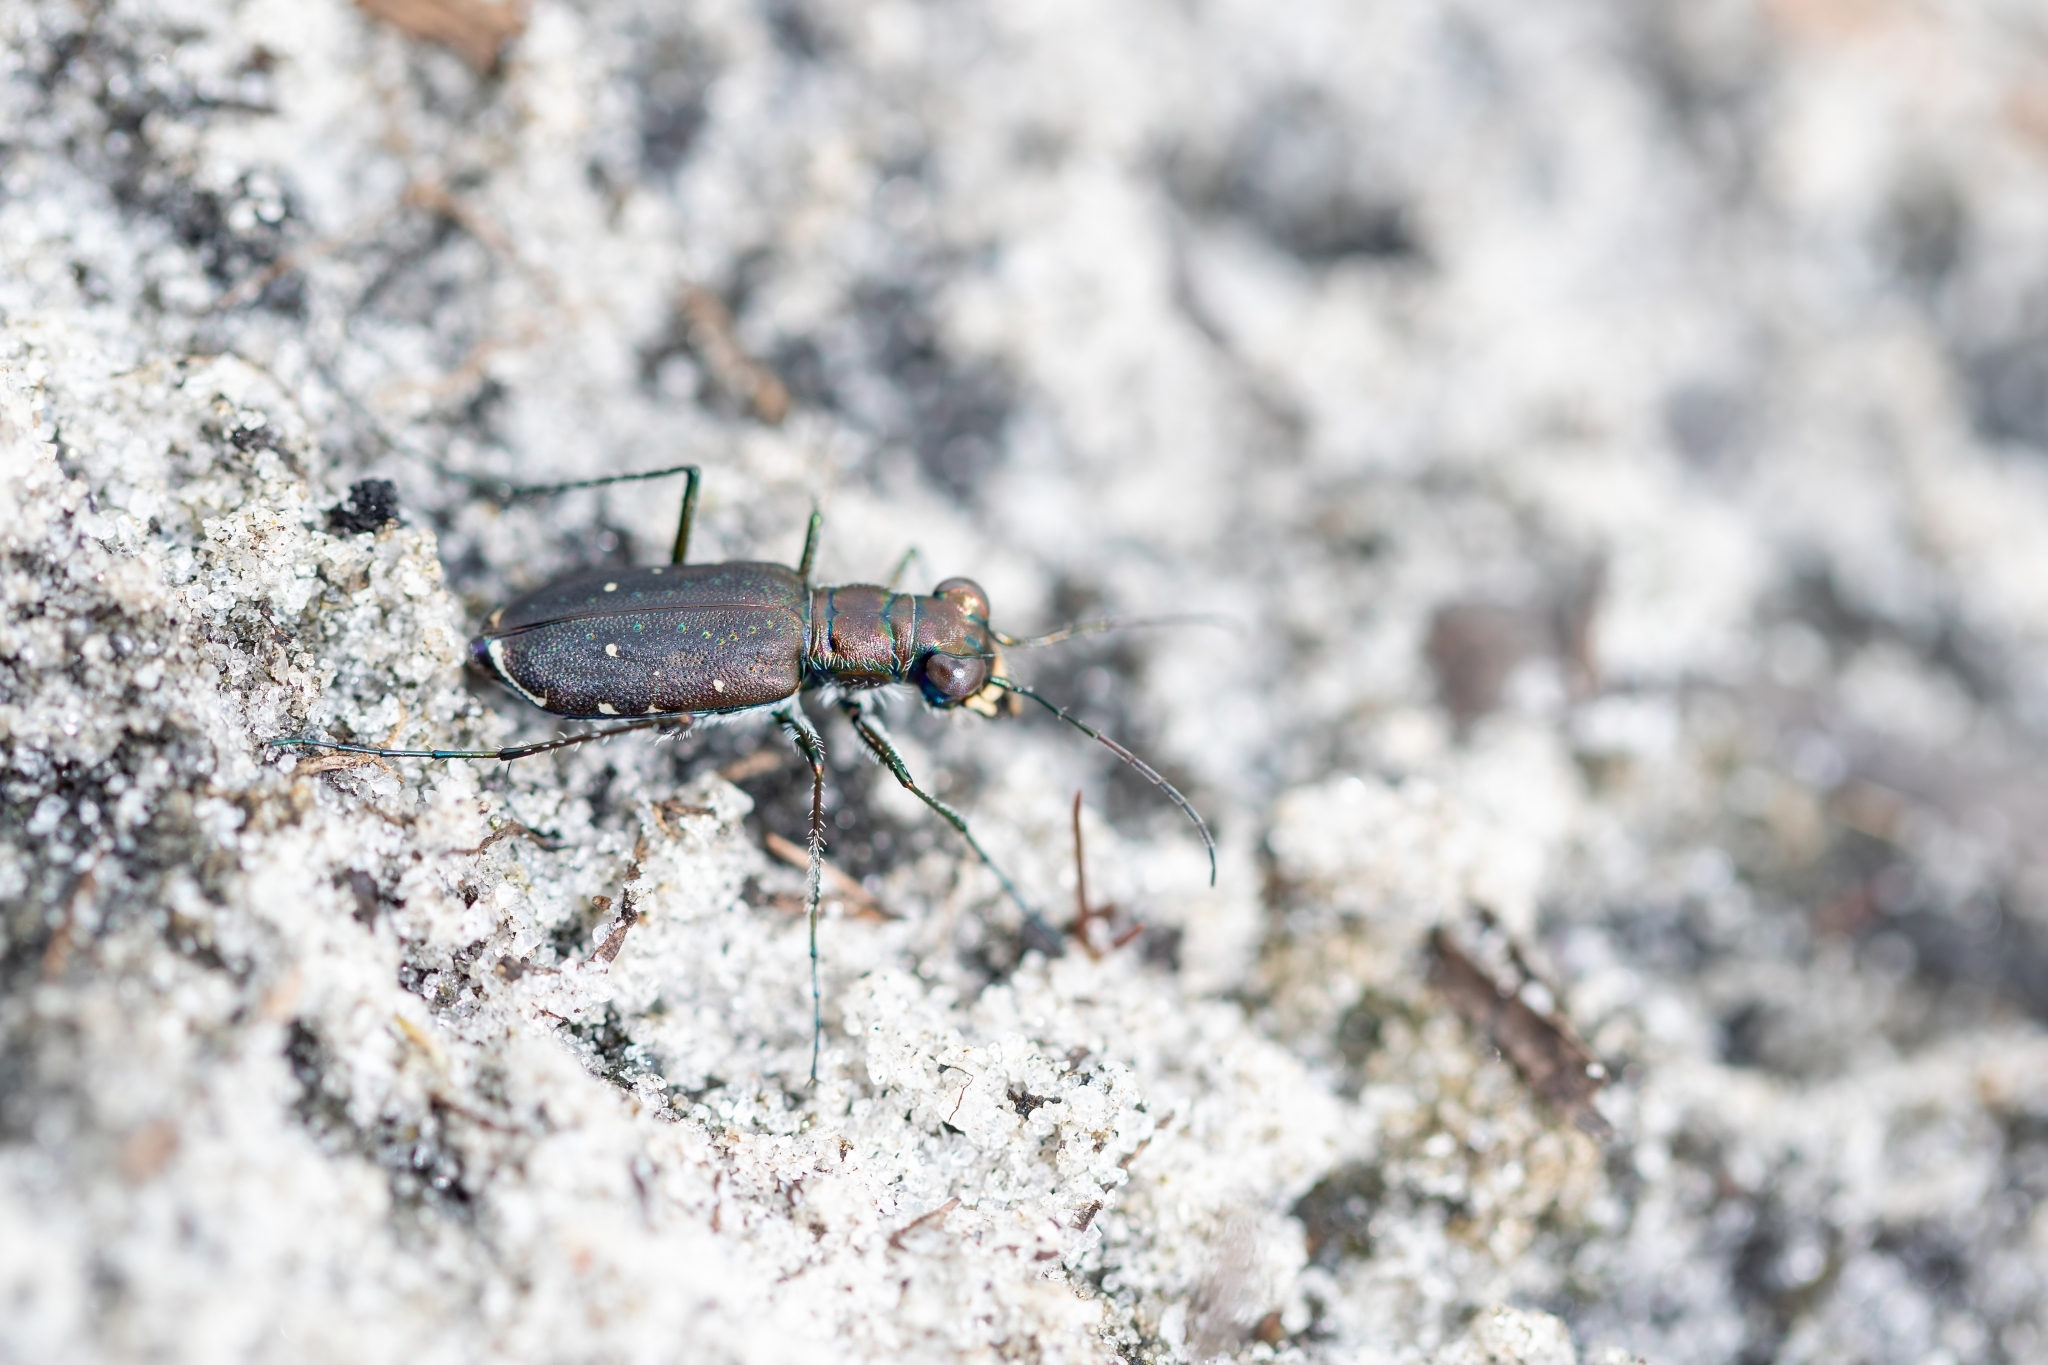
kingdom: Animalia
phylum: Arthropoda
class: Insecta
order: Coleoptera
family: Carabidae
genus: Cicindela
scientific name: Cicindela punctulata
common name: Punctured tiger beetle
